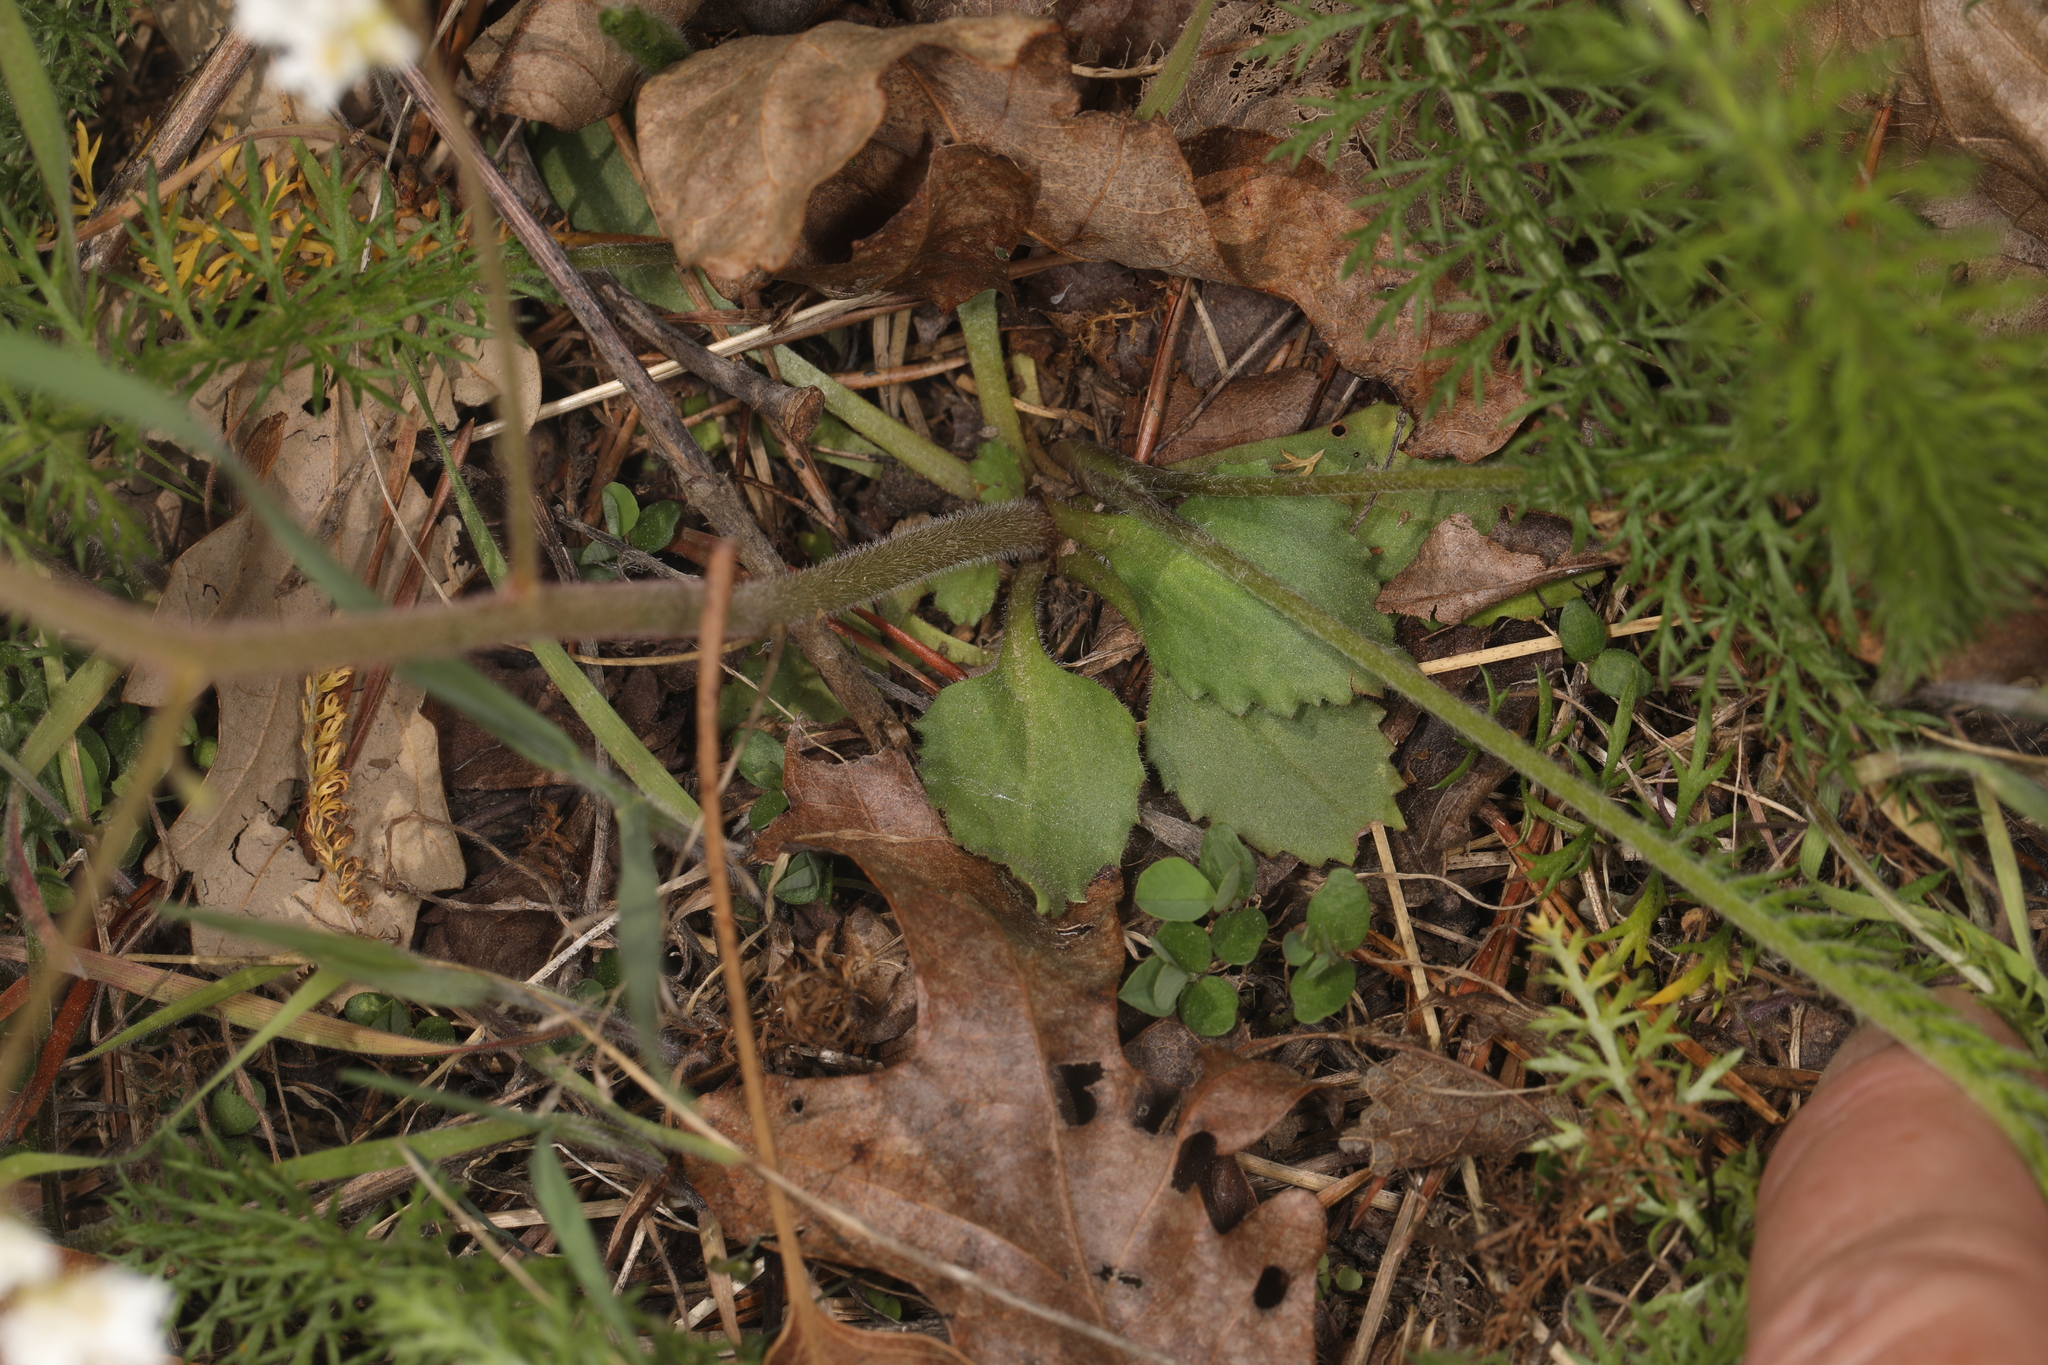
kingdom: Plantae
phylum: Tracheophyta
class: Magnoliopsida
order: Saxifragales
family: Saxifragaceae
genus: Micranthes
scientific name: Micranthes virginiensis
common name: Early saxifrage
